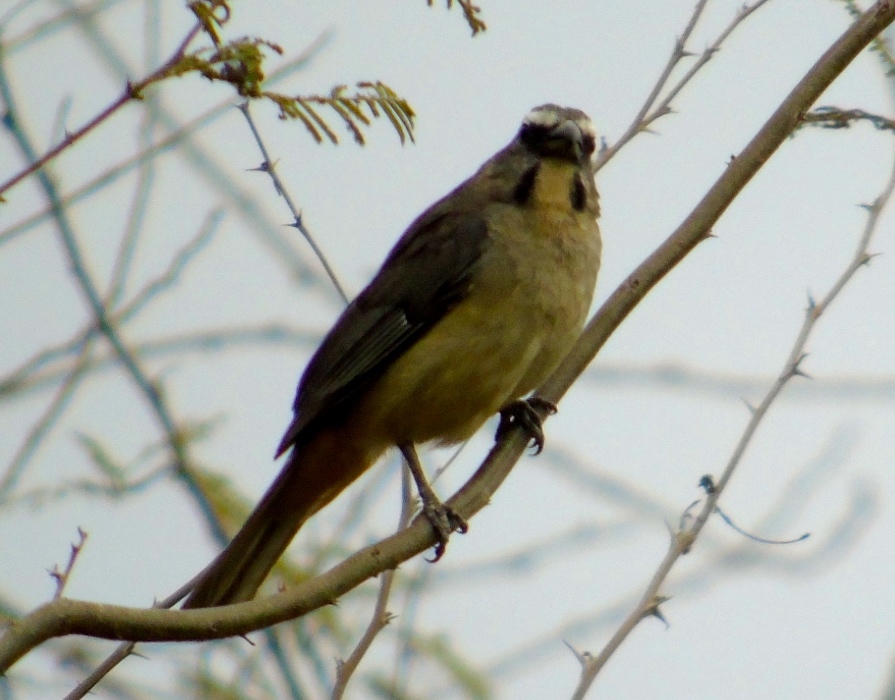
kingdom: Animalia
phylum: Chordata
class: Aves
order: Passeriformes
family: Thraupidae
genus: Saltator
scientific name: Saltator grandis
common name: Cinnamon-bellied saltator
